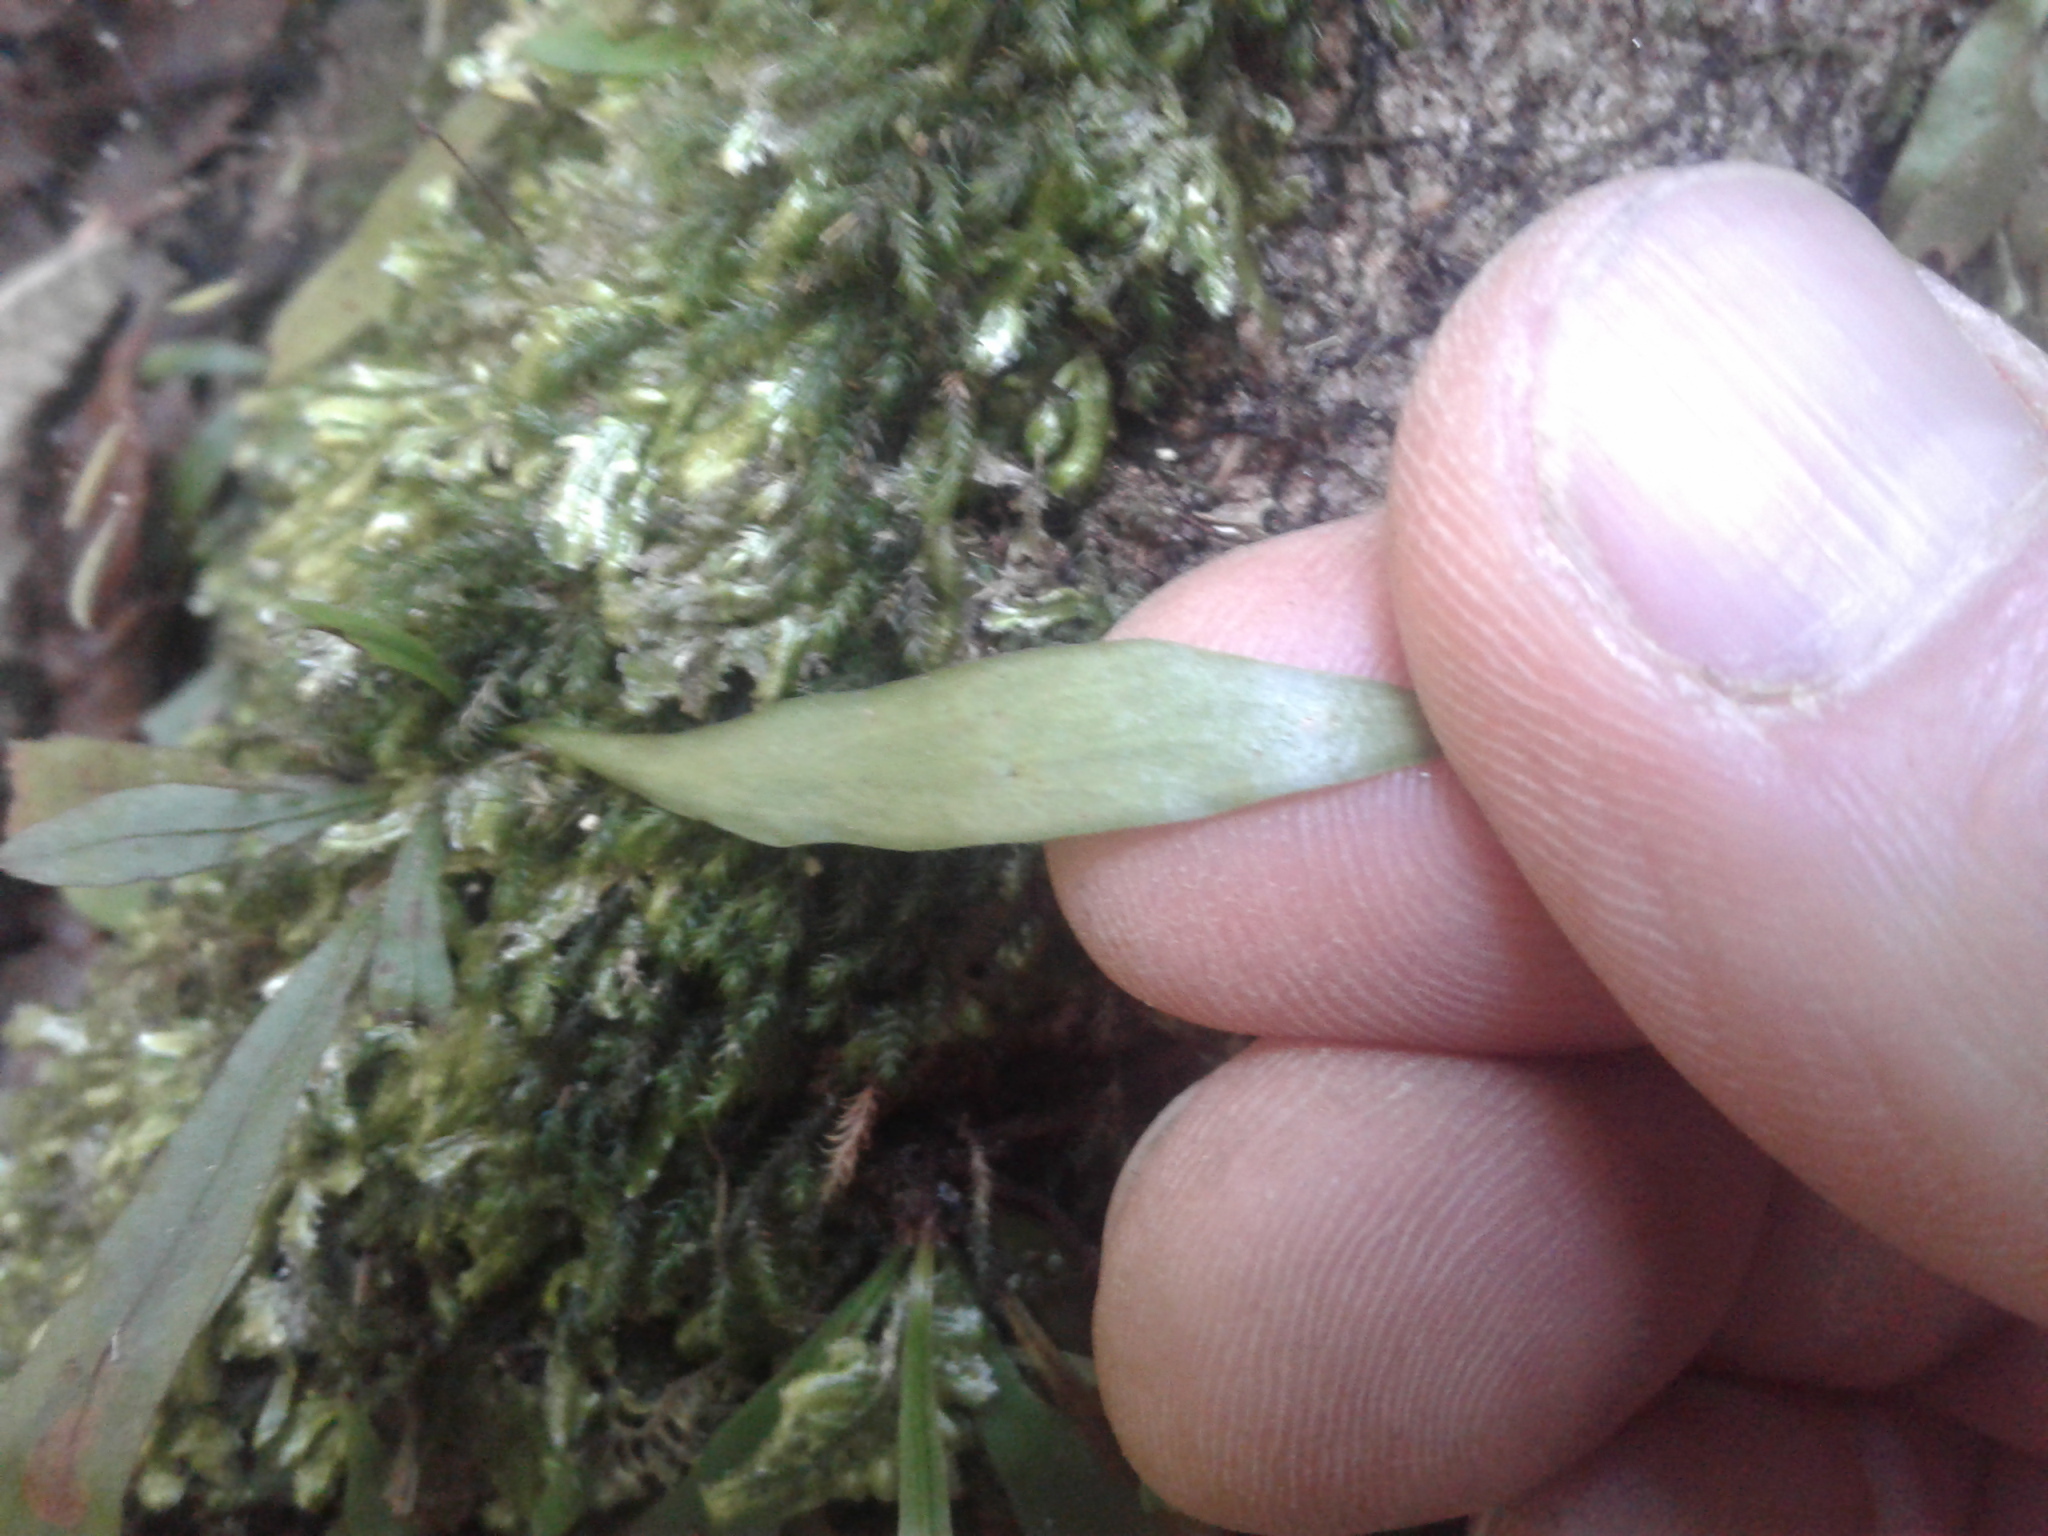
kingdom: Plantae
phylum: Tracheophyta
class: Polypodiopsida
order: Polypodiales
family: Polypodiaceae
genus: Loxogramme
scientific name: Loxogramme dictyopteris
